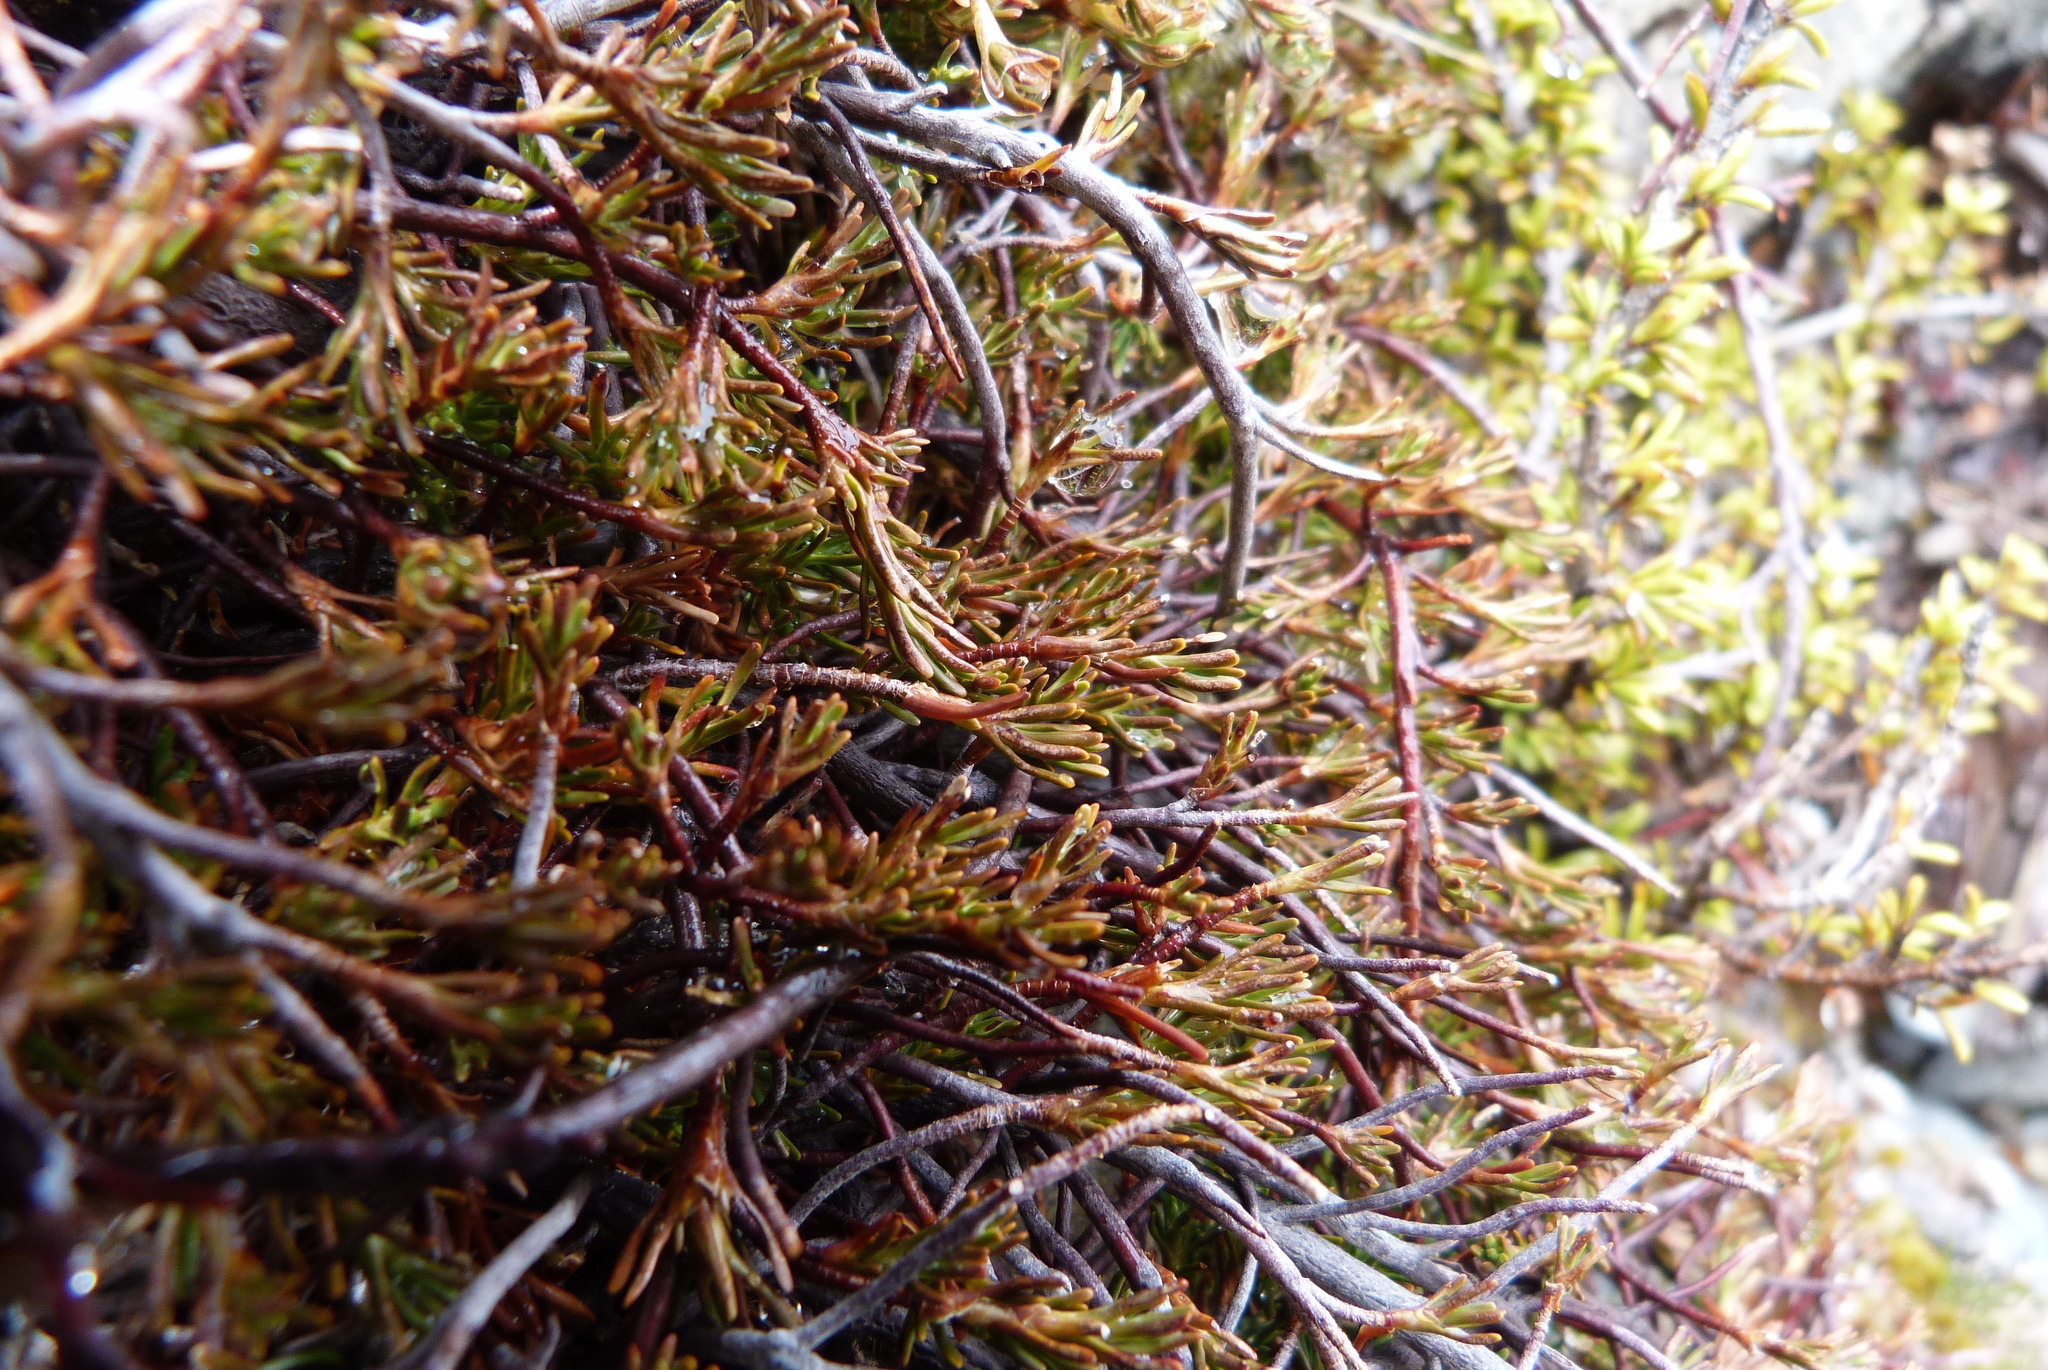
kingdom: Plantae
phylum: Tracheophyta
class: Magnoliopsida
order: Ericales
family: Ericaceae
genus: Dracophyllum
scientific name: Dracophyllum pronum
